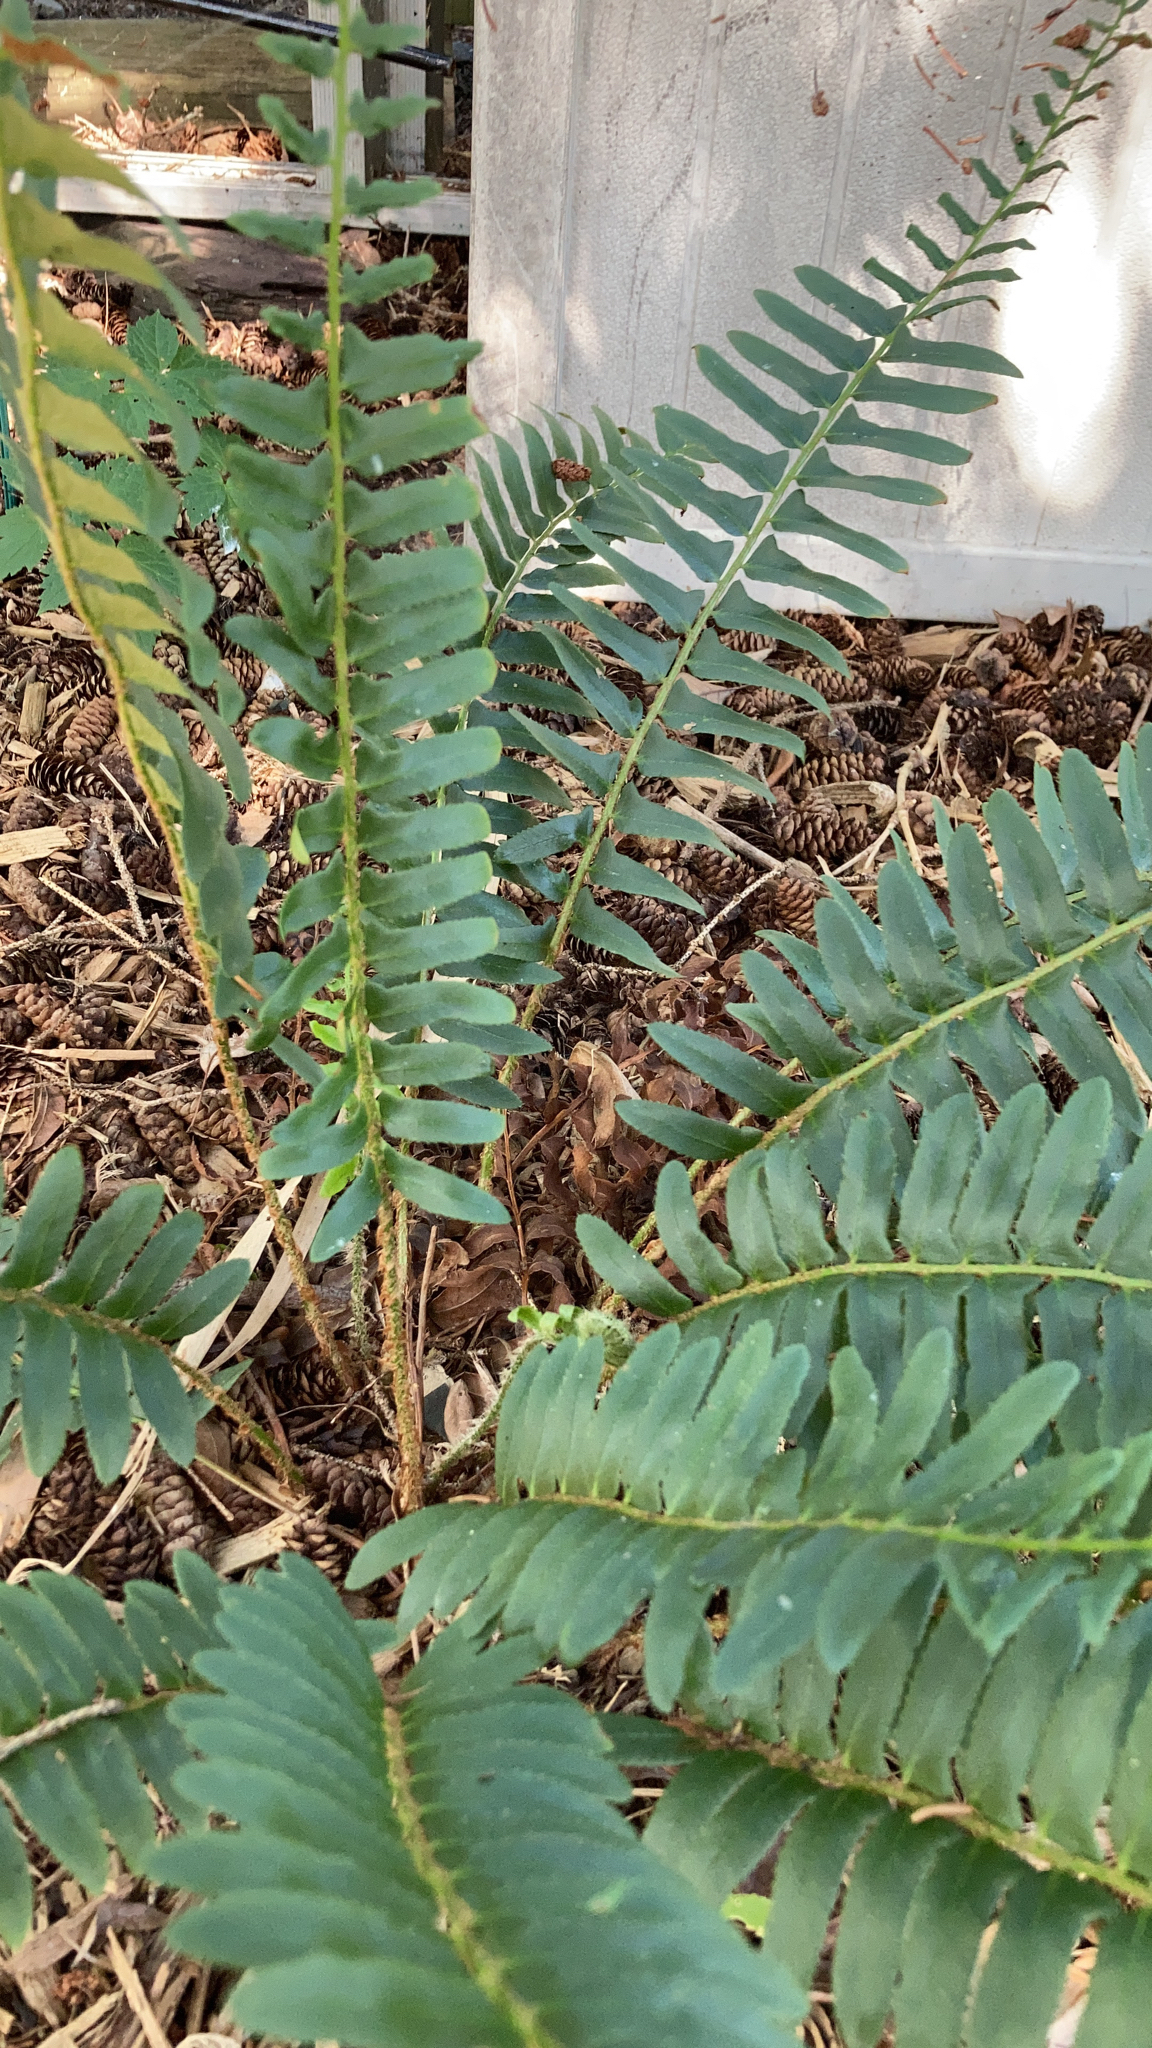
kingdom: Plantae
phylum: Tracheophyta
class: Polypodiopsida
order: Polypodiales
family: Dryopteridaceae
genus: Polystichum
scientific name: Polystichum acrostichoides
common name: Christmas fern
